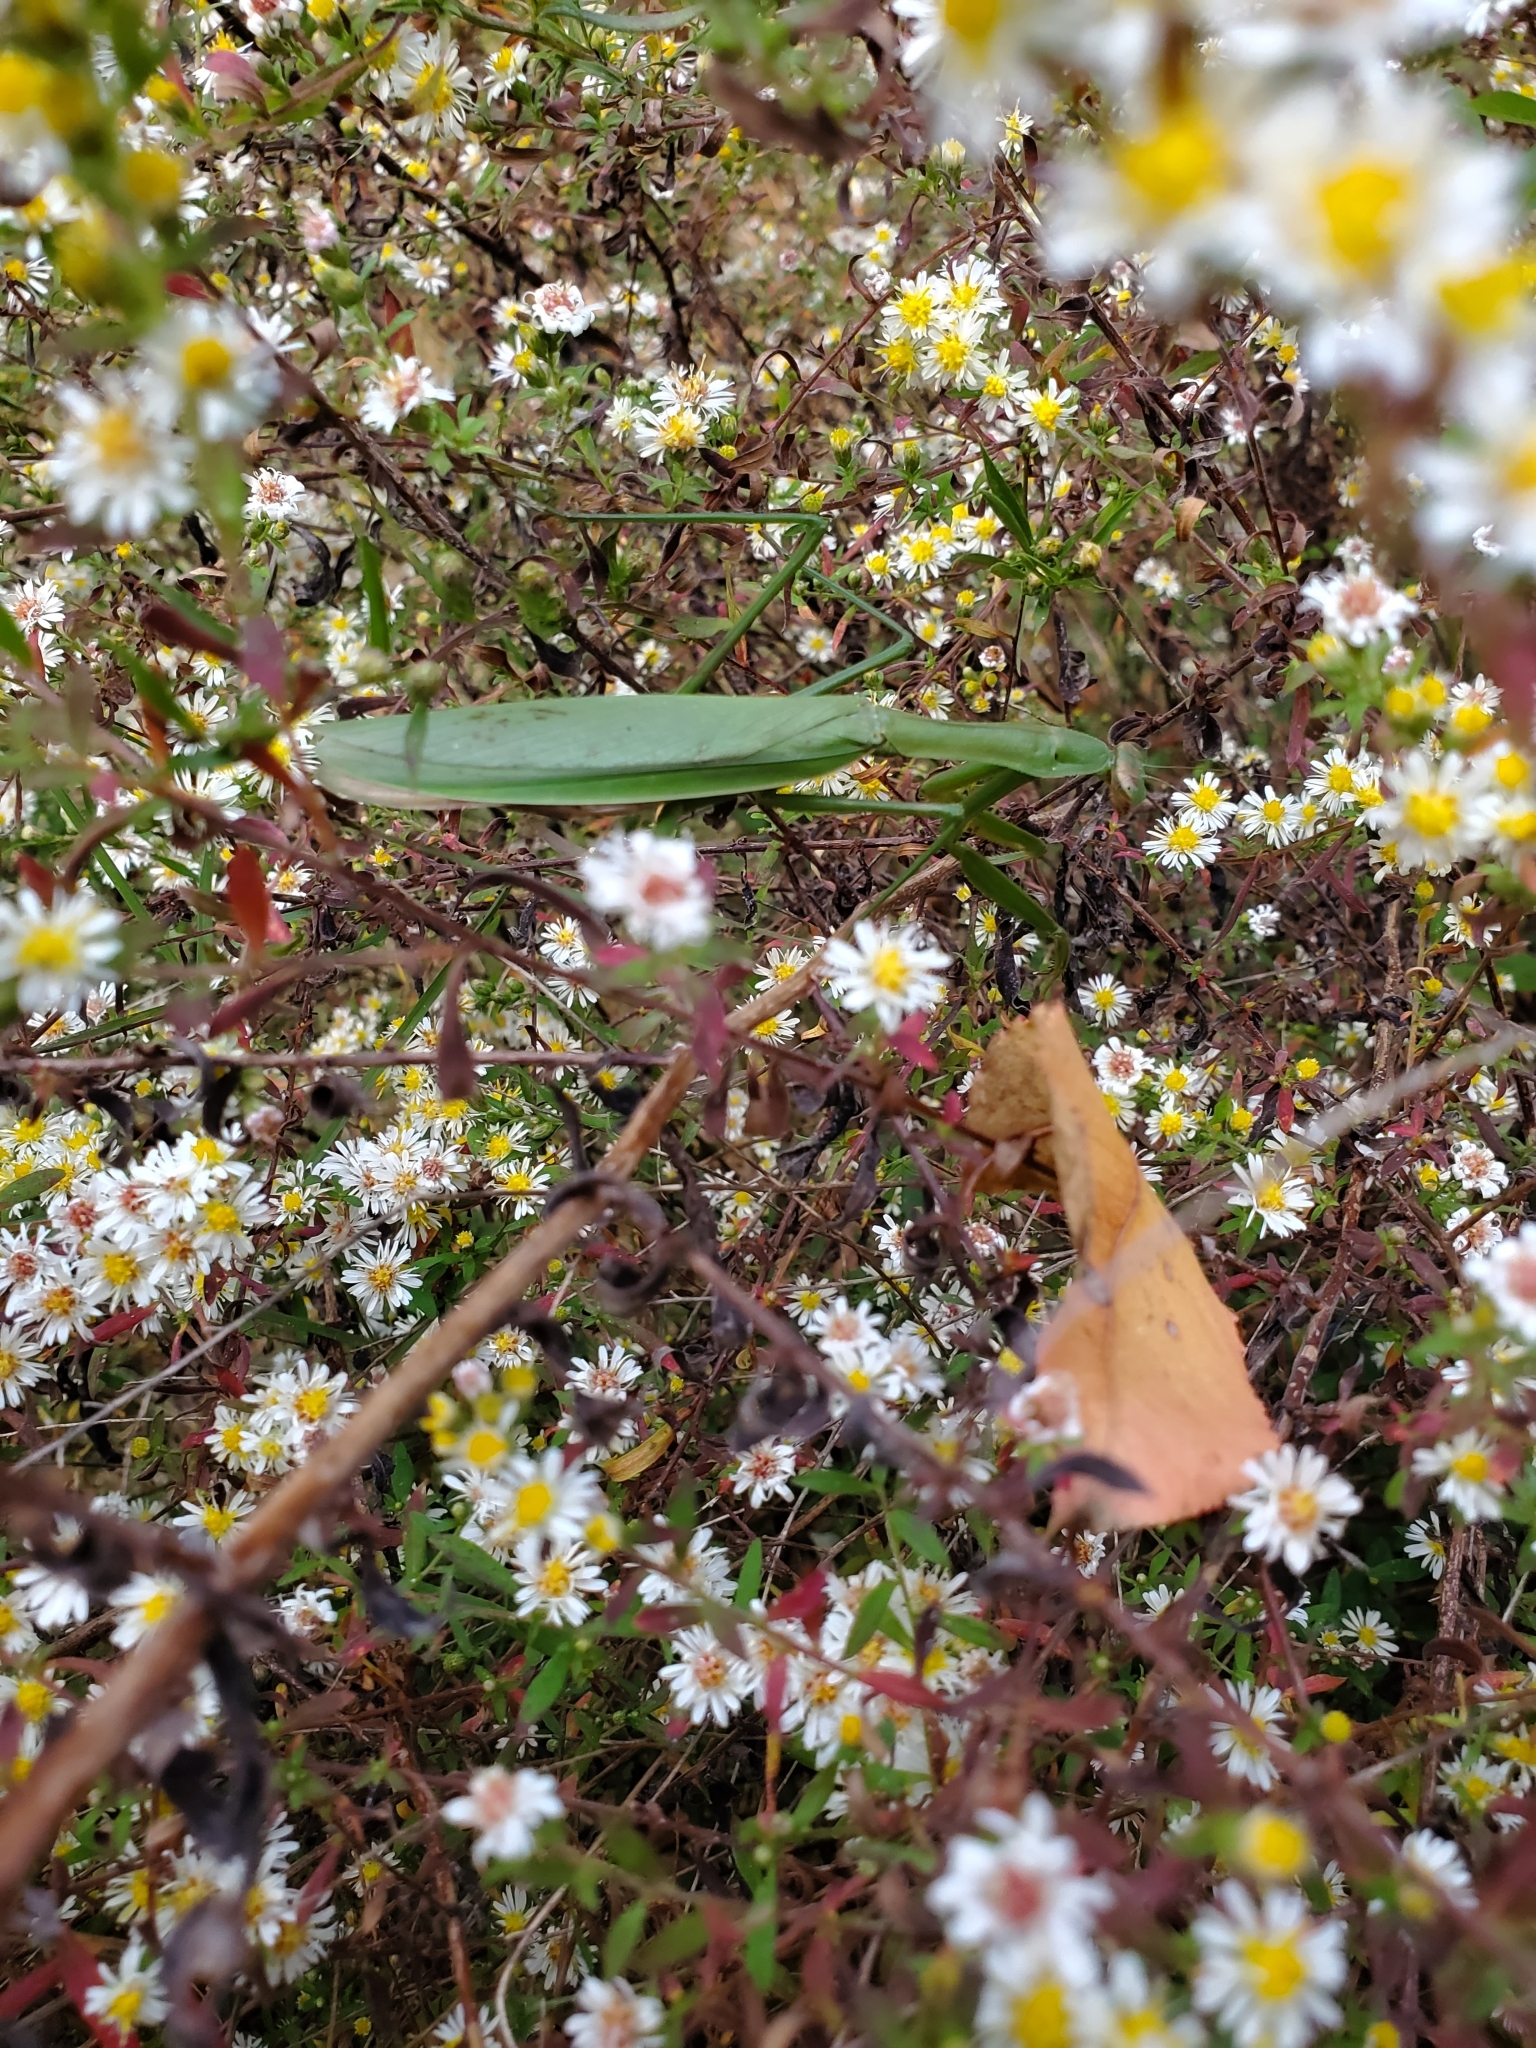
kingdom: Animalia
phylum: Arthropoda
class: Insecta
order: Mantodea
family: Mantidae
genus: Tenodera
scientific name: Tenodera sinensis
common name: Chinese mantis
